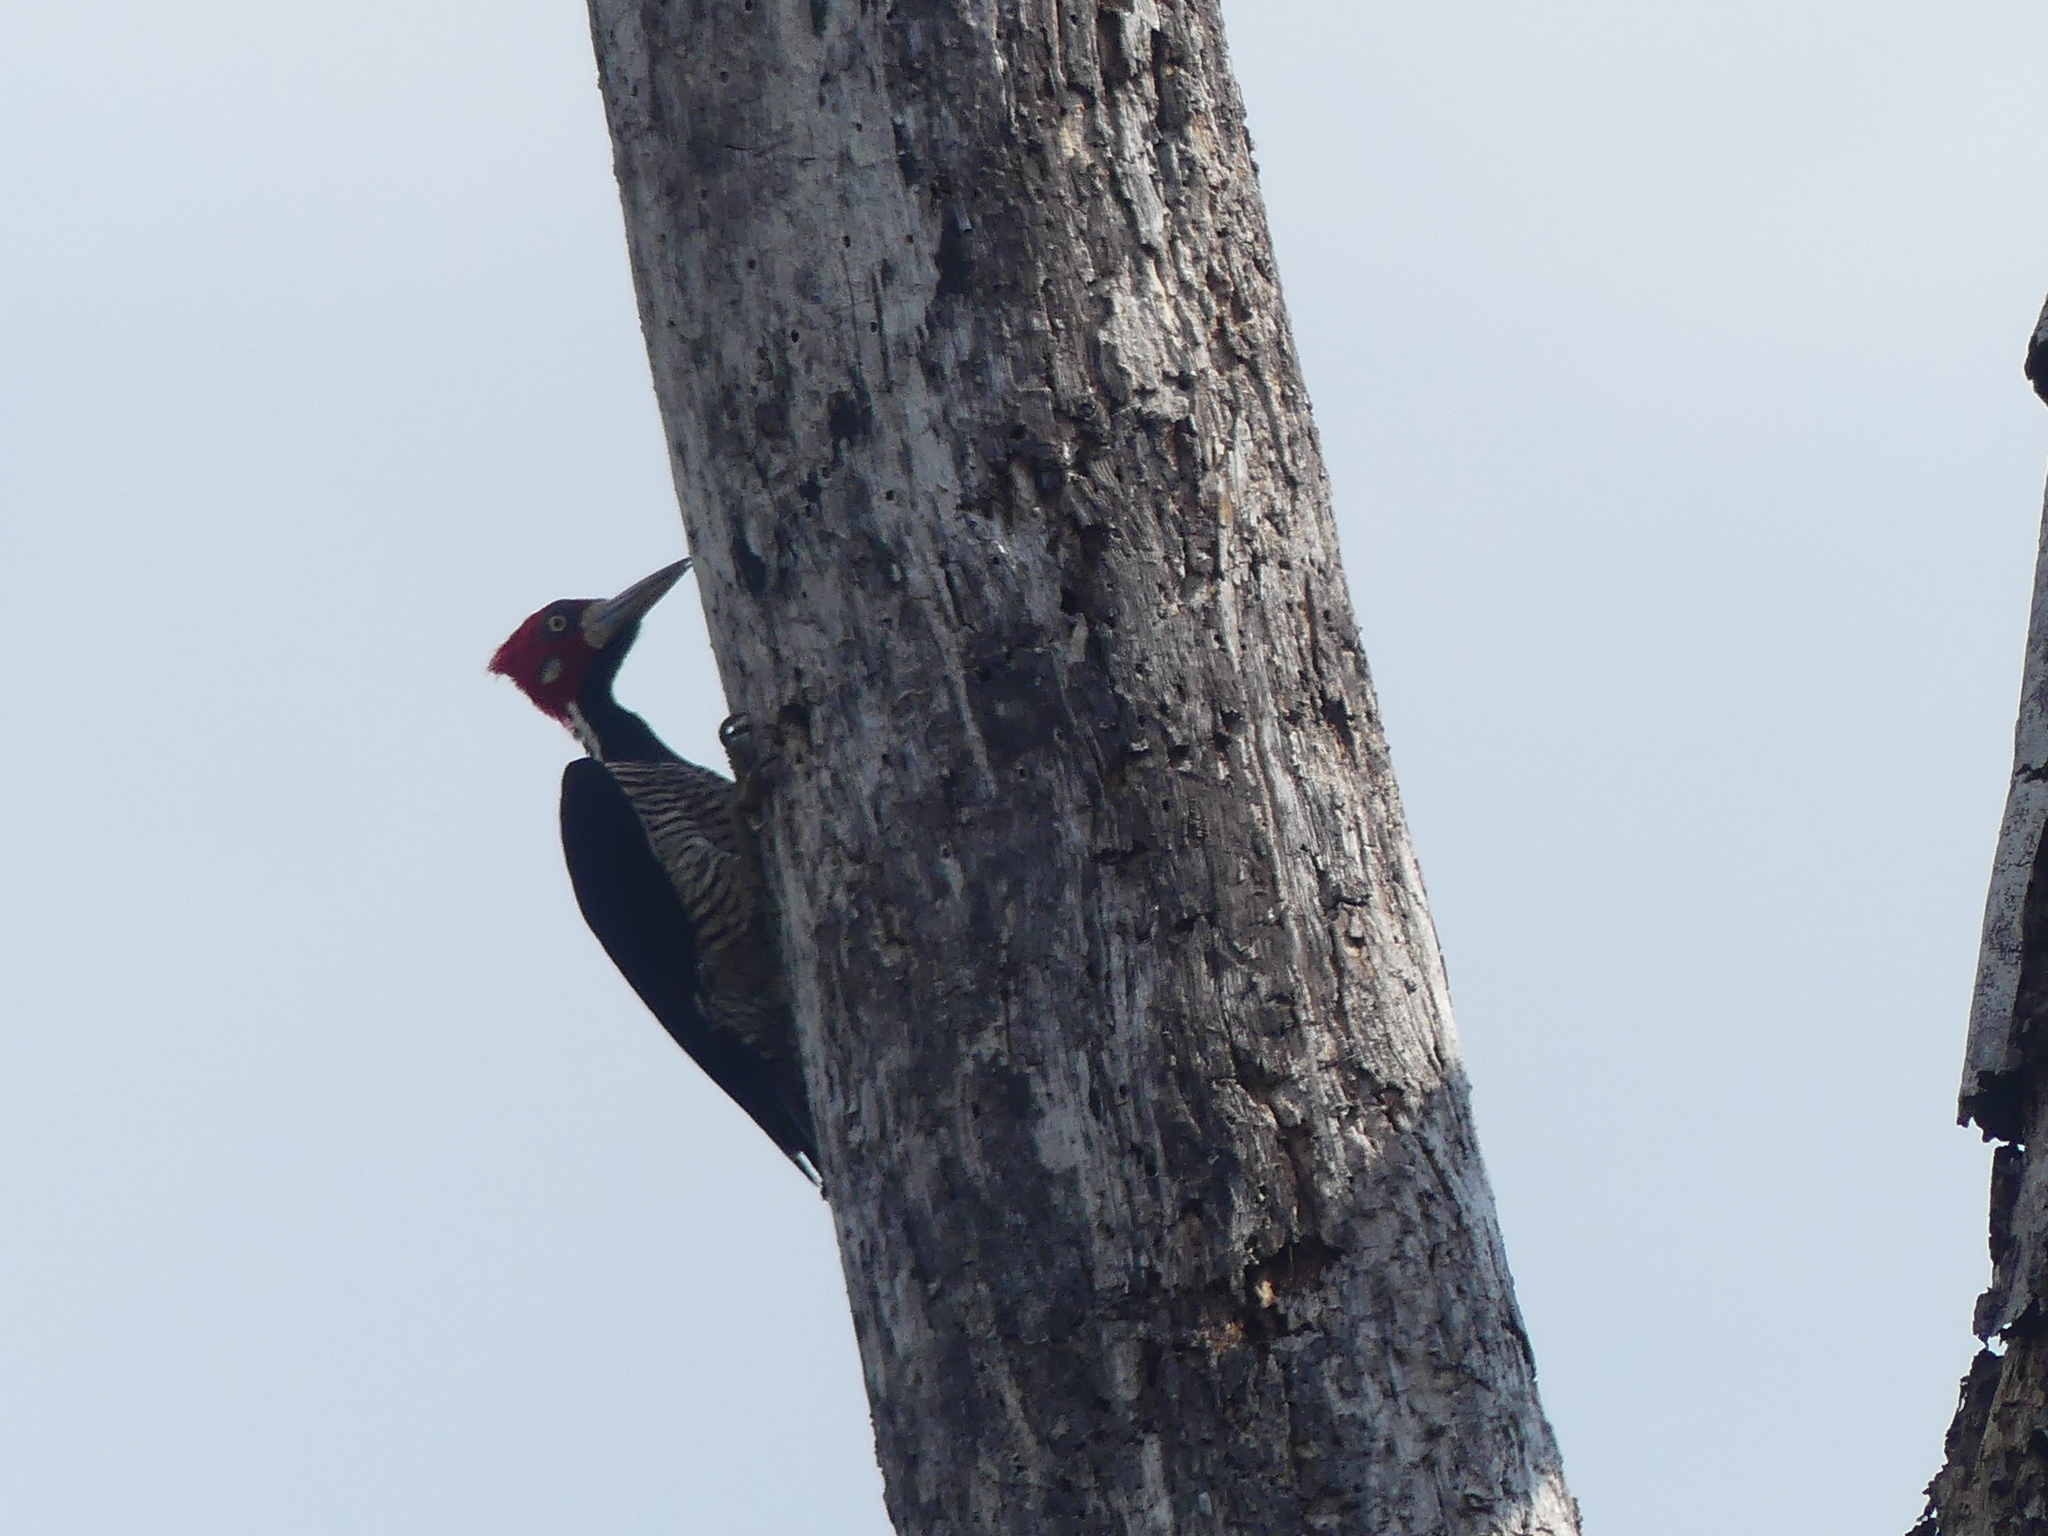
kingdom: Animalia
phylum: Chordata
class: Aves
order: Piciformes
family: Picidae
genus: Campephilus
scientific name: Campephilus melanoleucos
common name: Crimson-crested woodpecker
